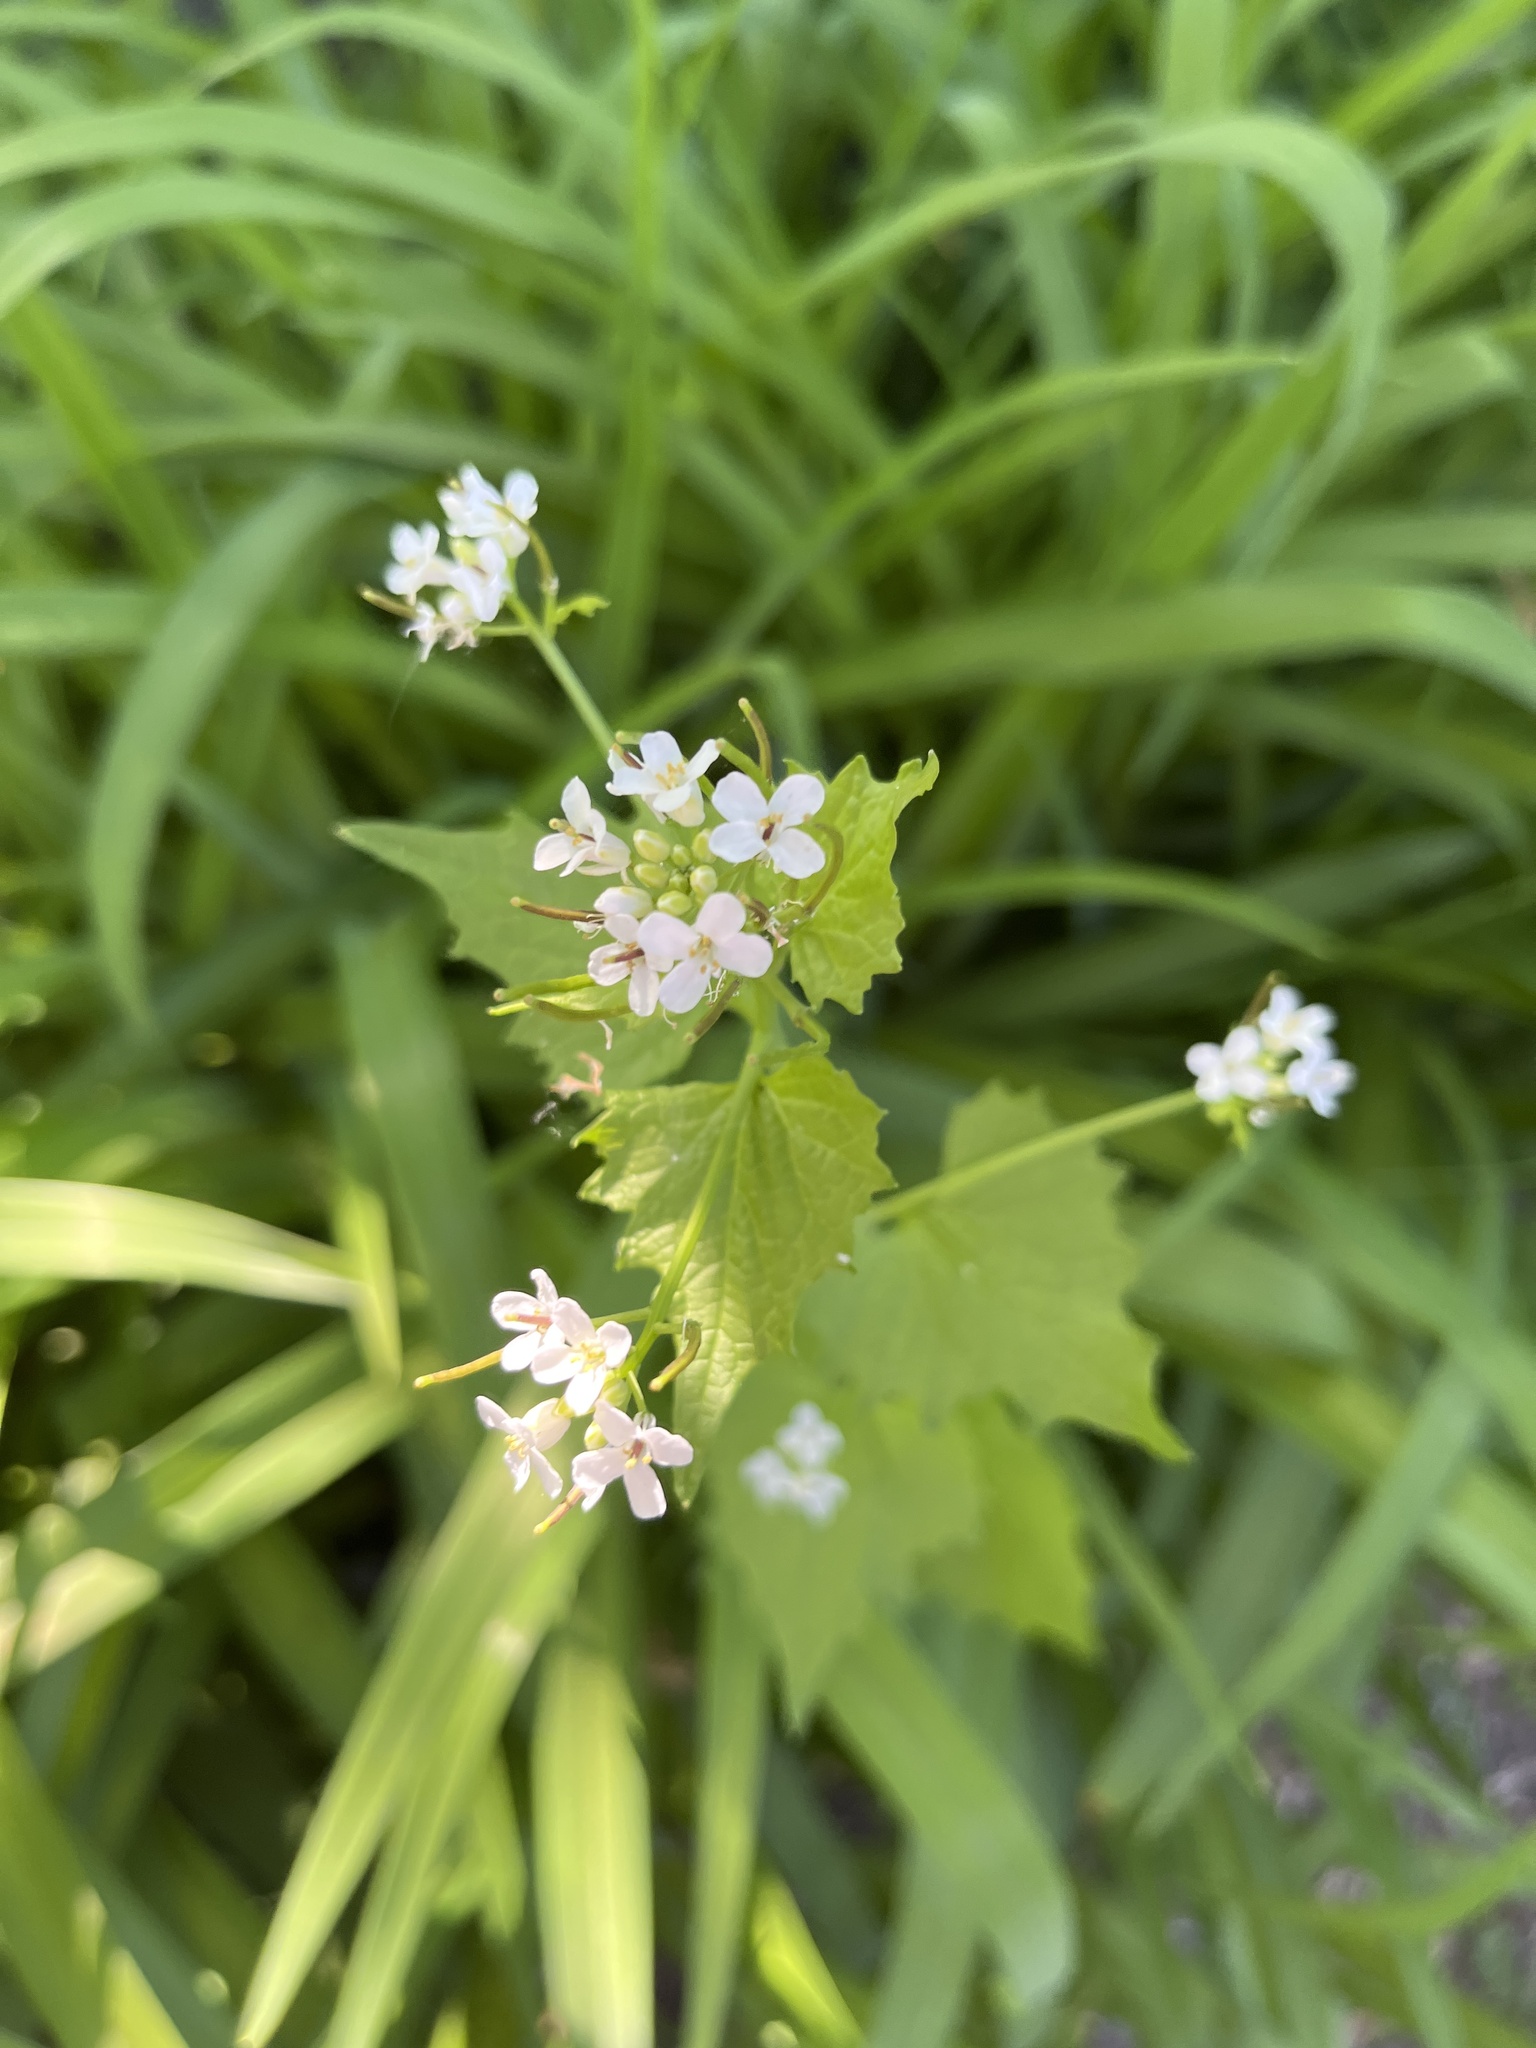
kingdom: Plantae
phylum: Tracheophyta
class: Magnoliopsida
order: Brassicales
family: Brassicaceae
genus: Alliaria
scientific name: Alliaria petiolata
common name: Garlic mustard
